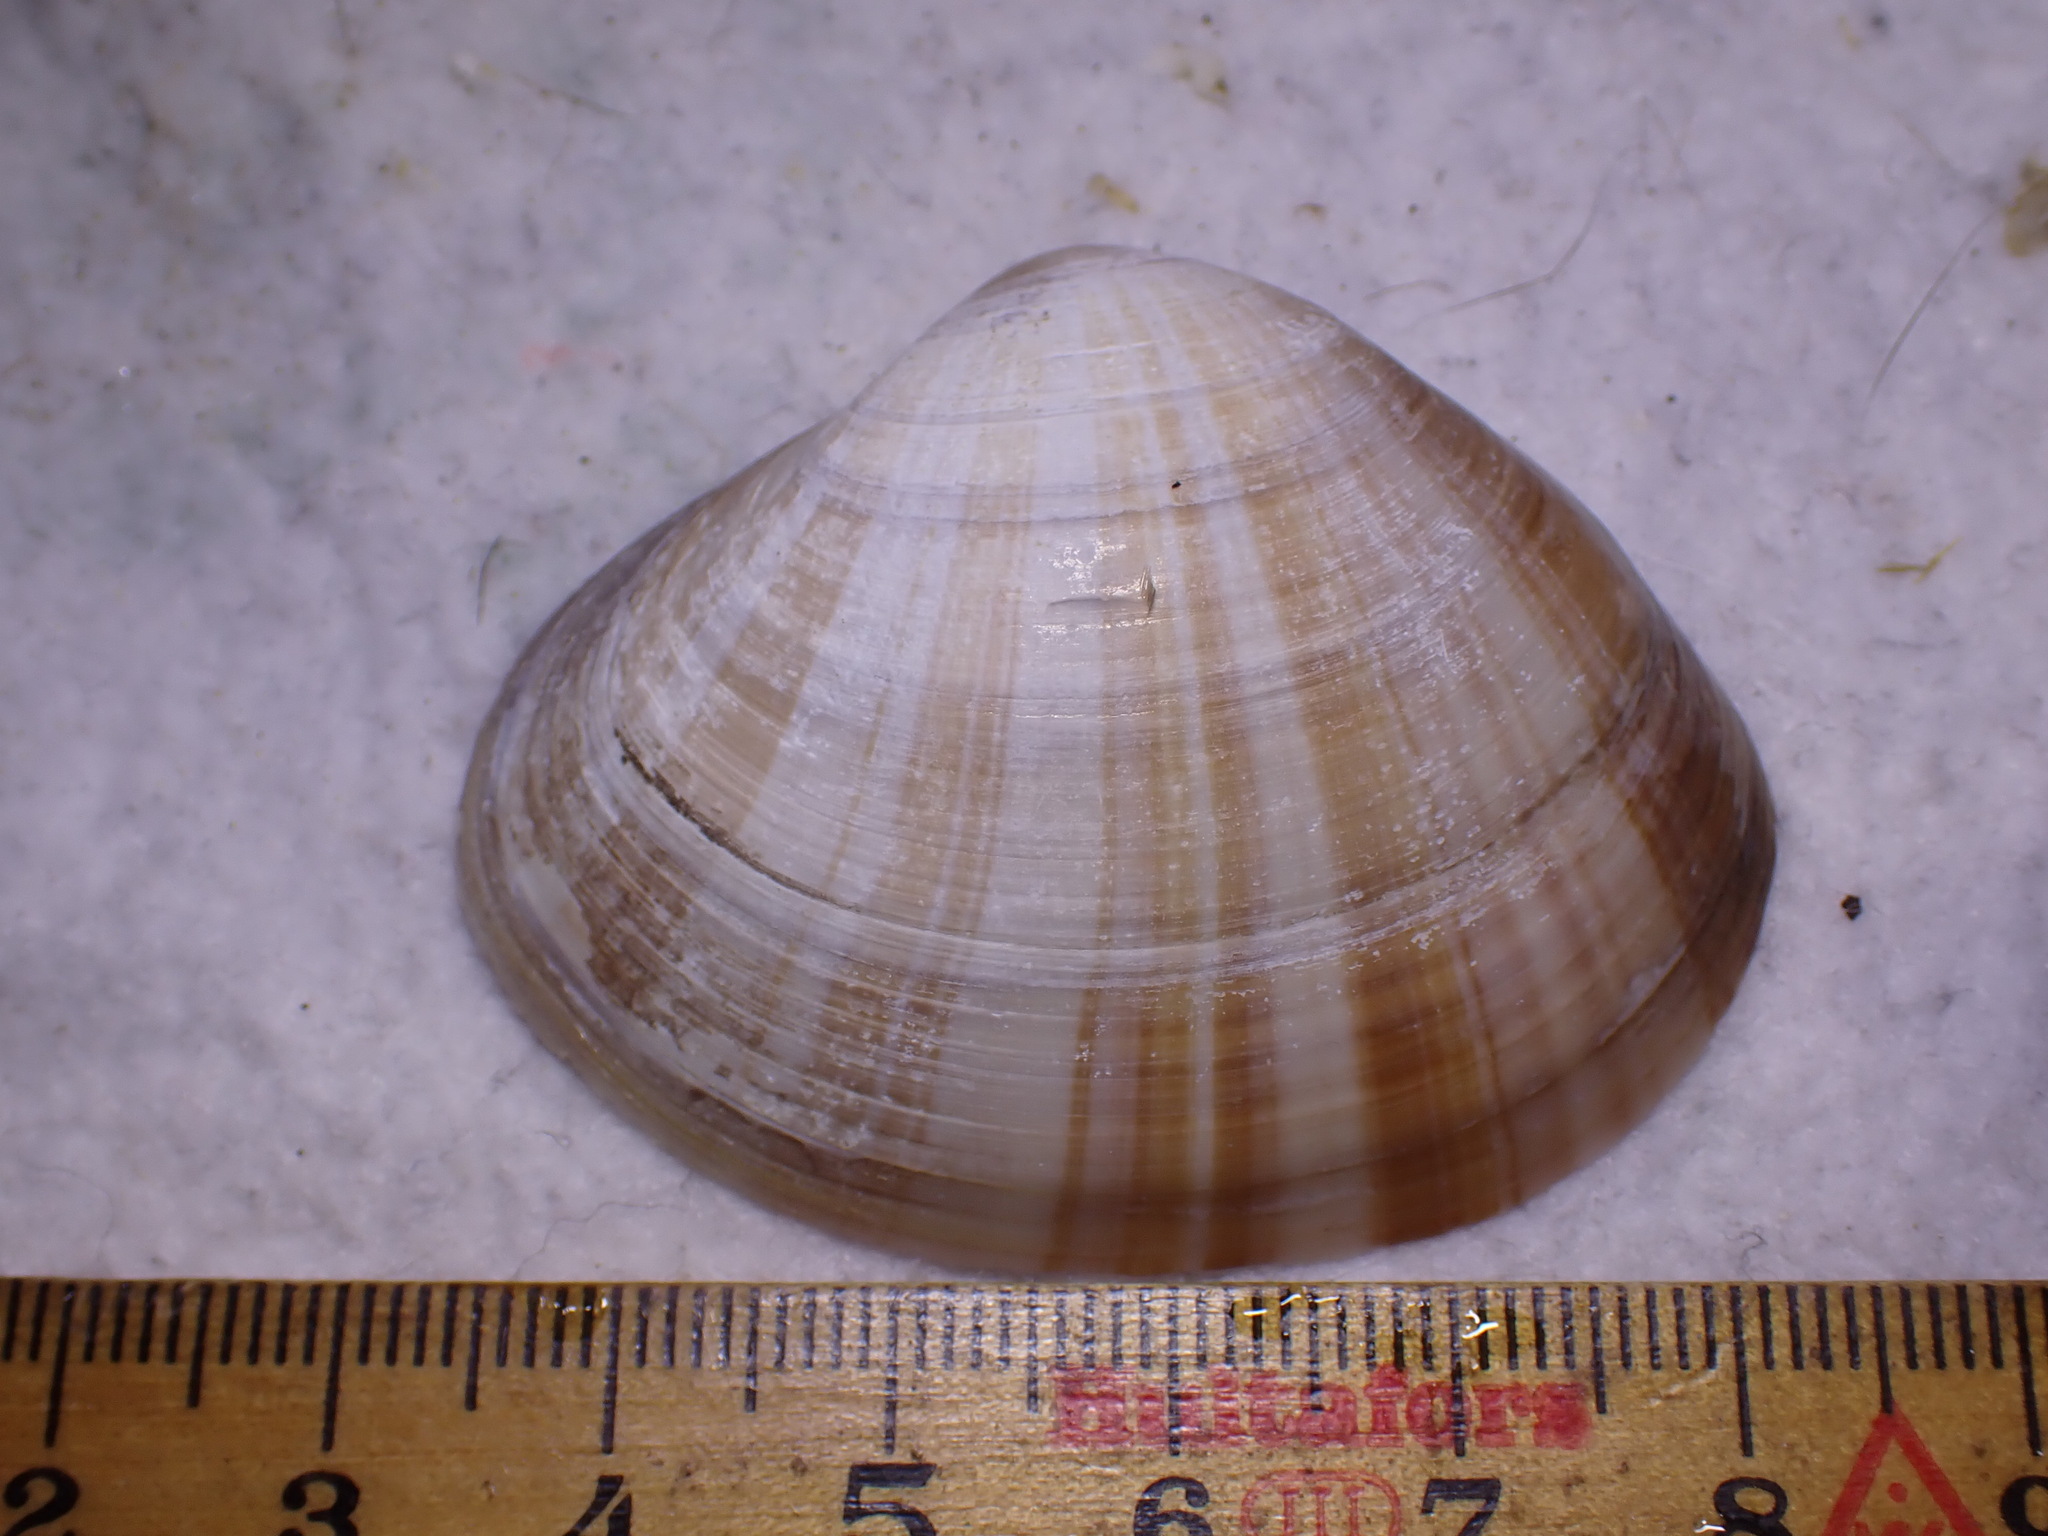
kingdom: Animalia
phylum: Mollusca
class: Bivalvia
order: Venerida
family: Mactridae
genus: Mactra
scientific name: Mactra stultorum
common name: Rayed trough shell
